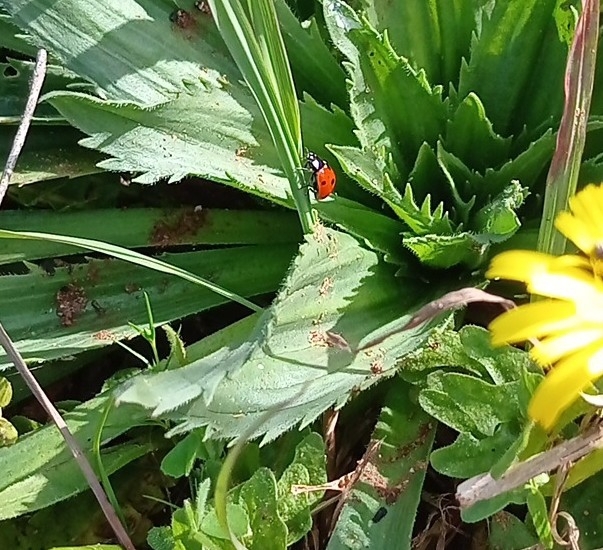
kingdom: Animalia
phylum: Arthropoda
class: Insecta
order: Coleoptera
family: Coccinellidae
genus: Coccinella
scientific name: Coccinella septempunctata
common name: Sevenspotted lady beetle
